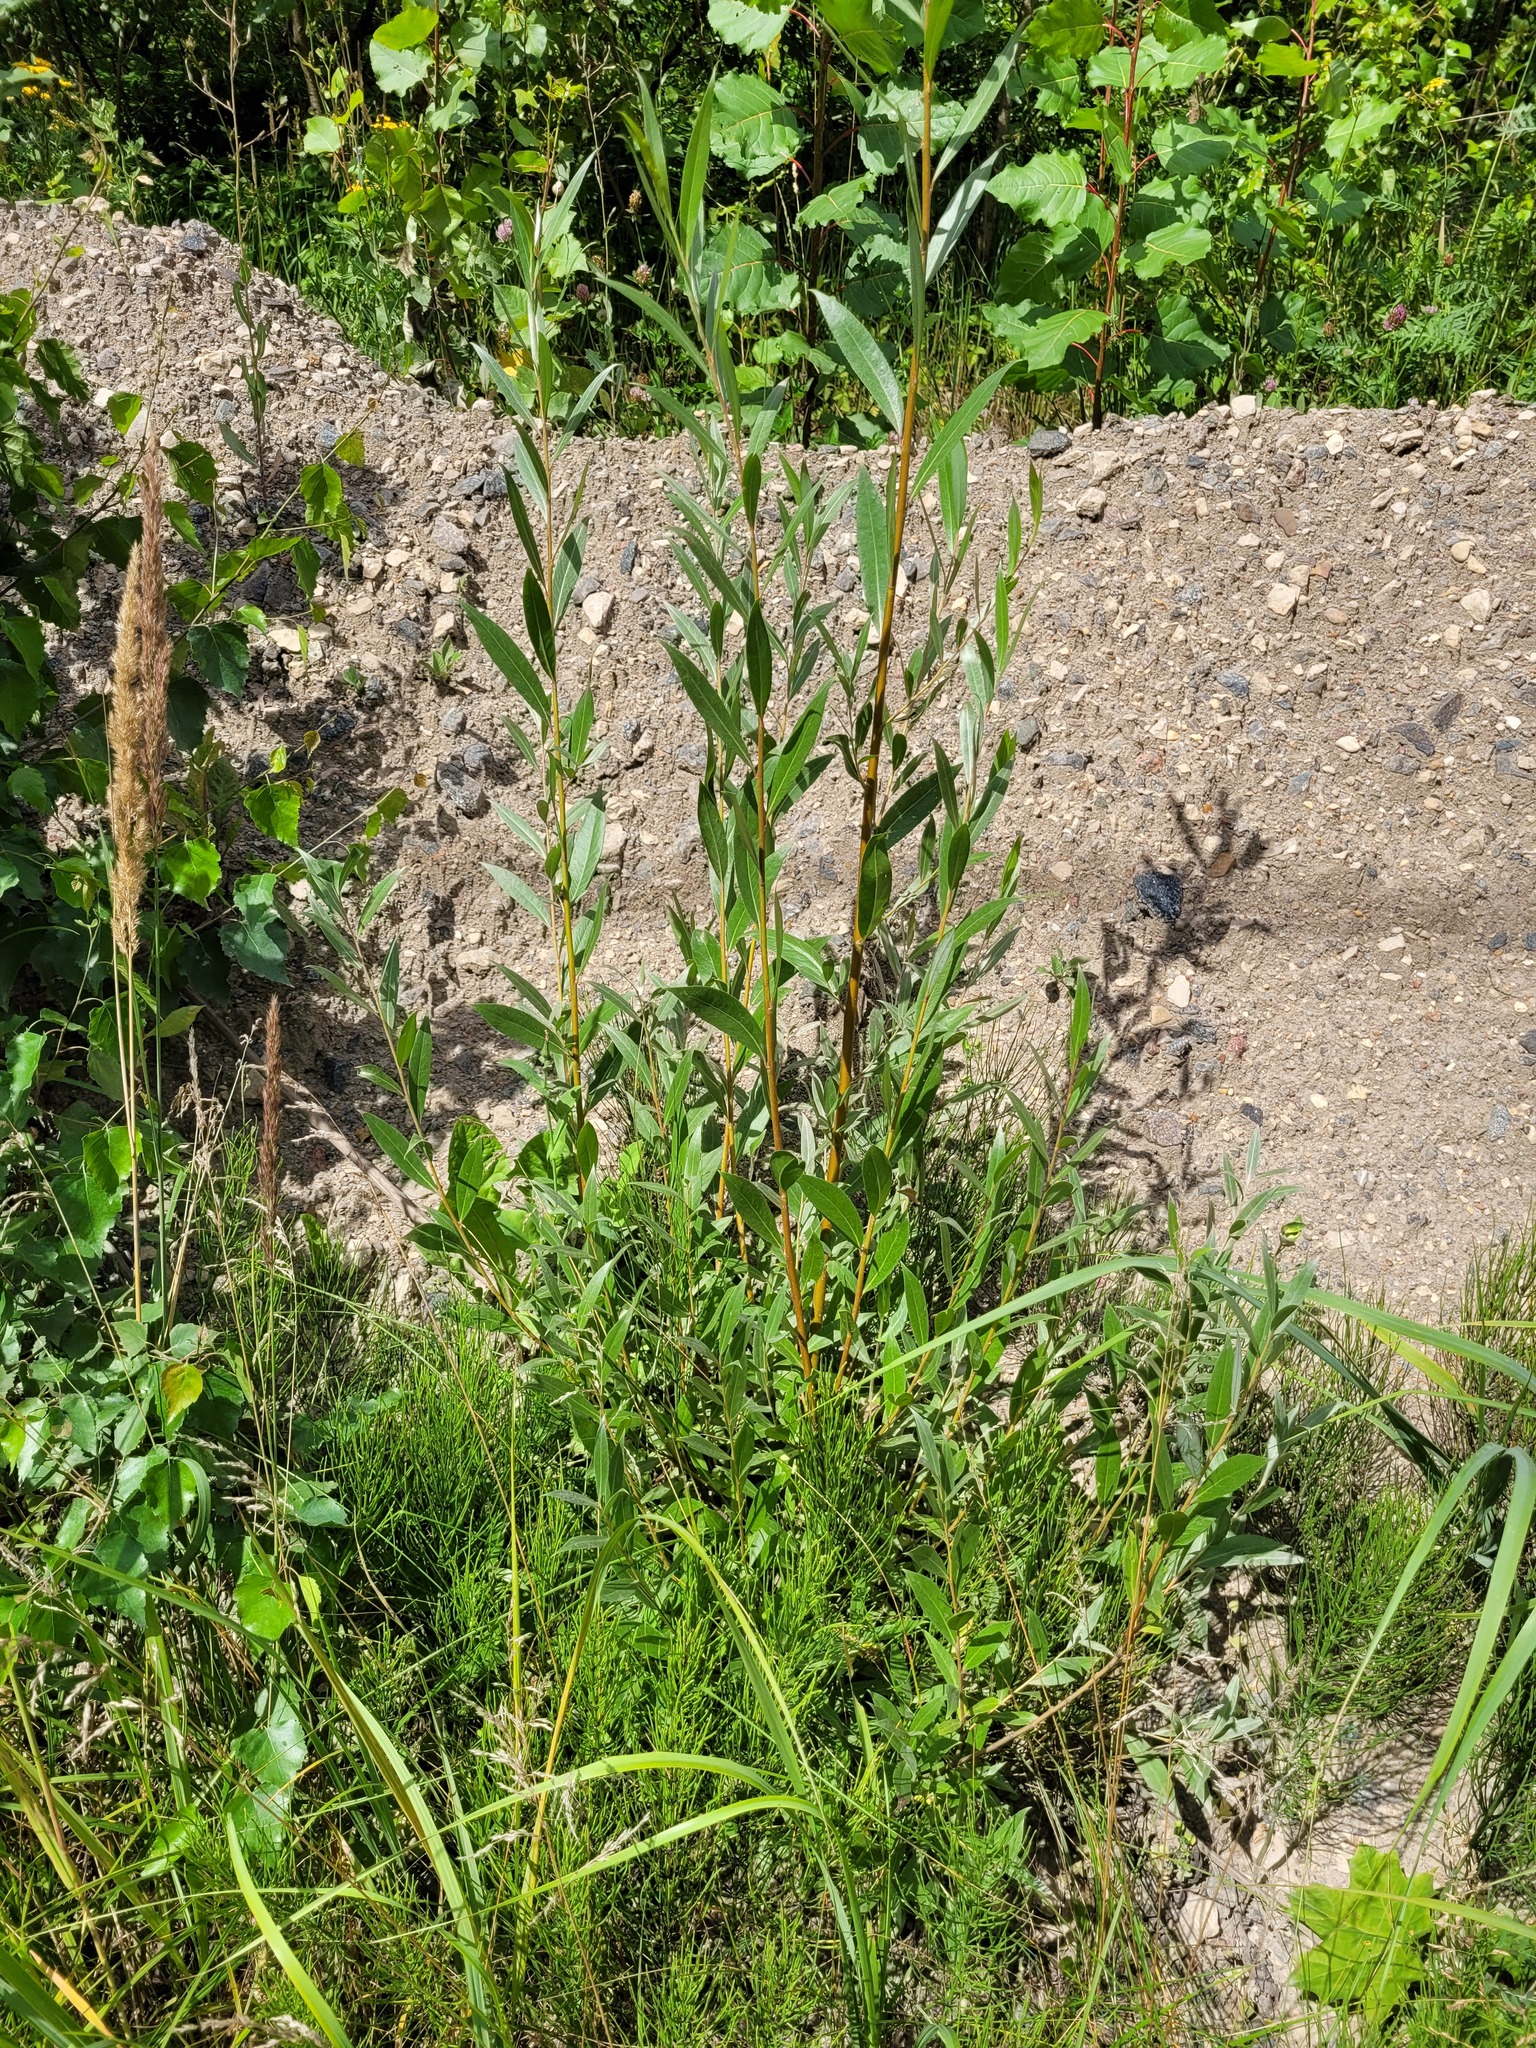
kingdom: Plantae
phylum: Tracheophyta
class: Magnoliopsida
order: Malpighiales
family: Salicaceae
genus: Salix
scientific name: Salix alba
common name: White willow
